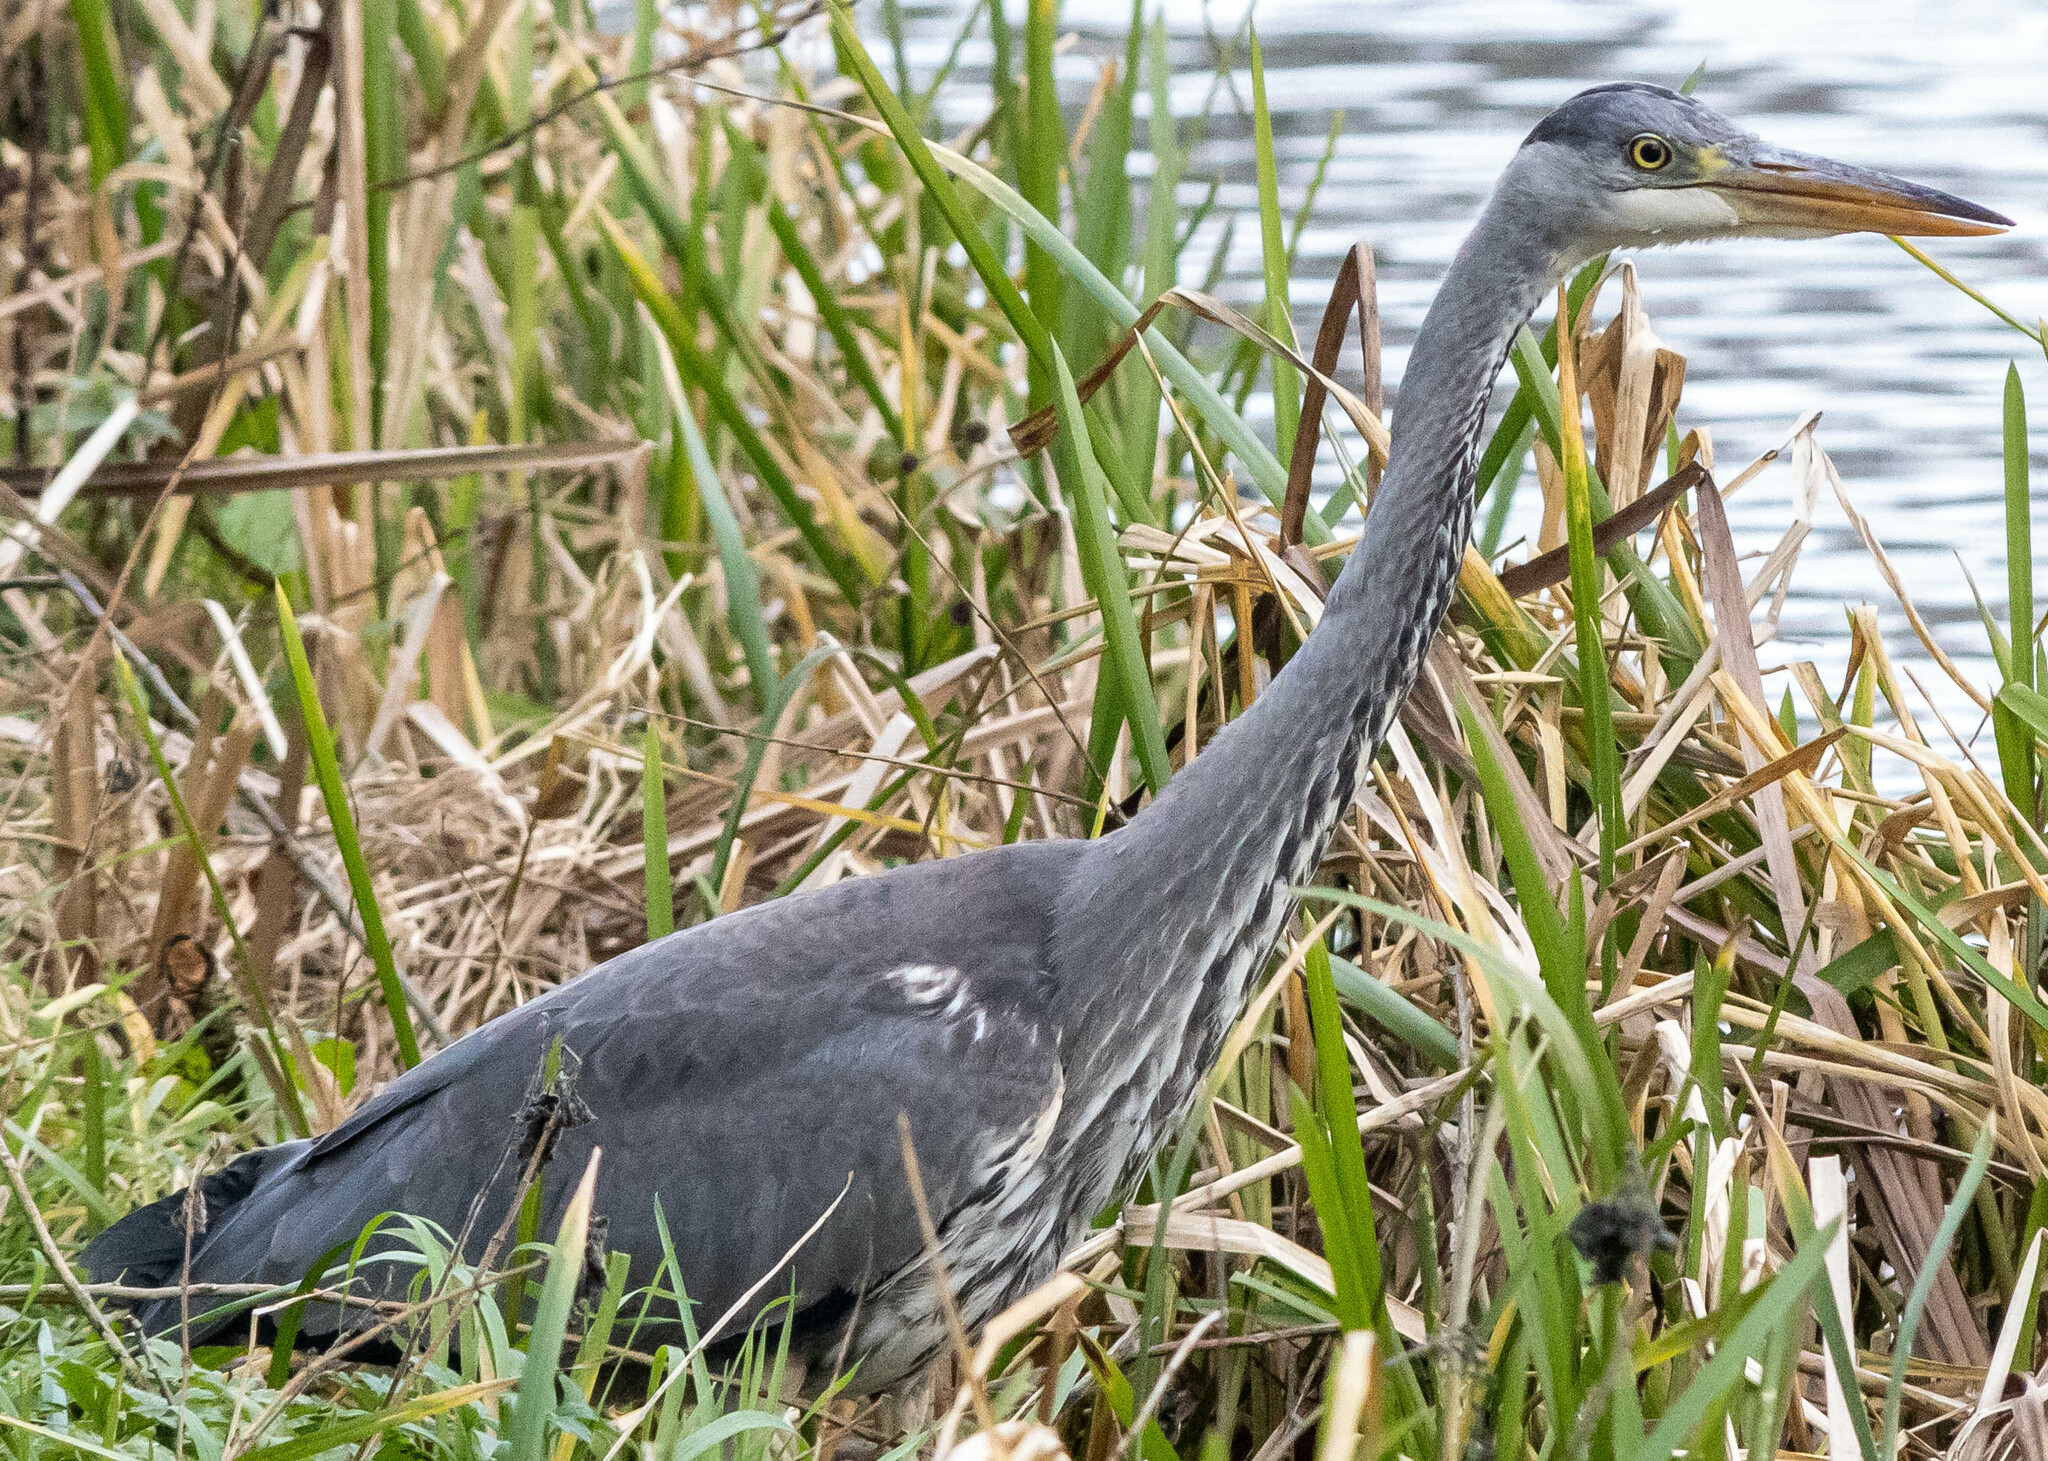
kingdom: Animalia
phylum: Chordata
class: Aves
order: Pelecaniformes
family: Ardeidae
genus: Ardea
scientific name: Ardea cinerea
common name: Grey heron
